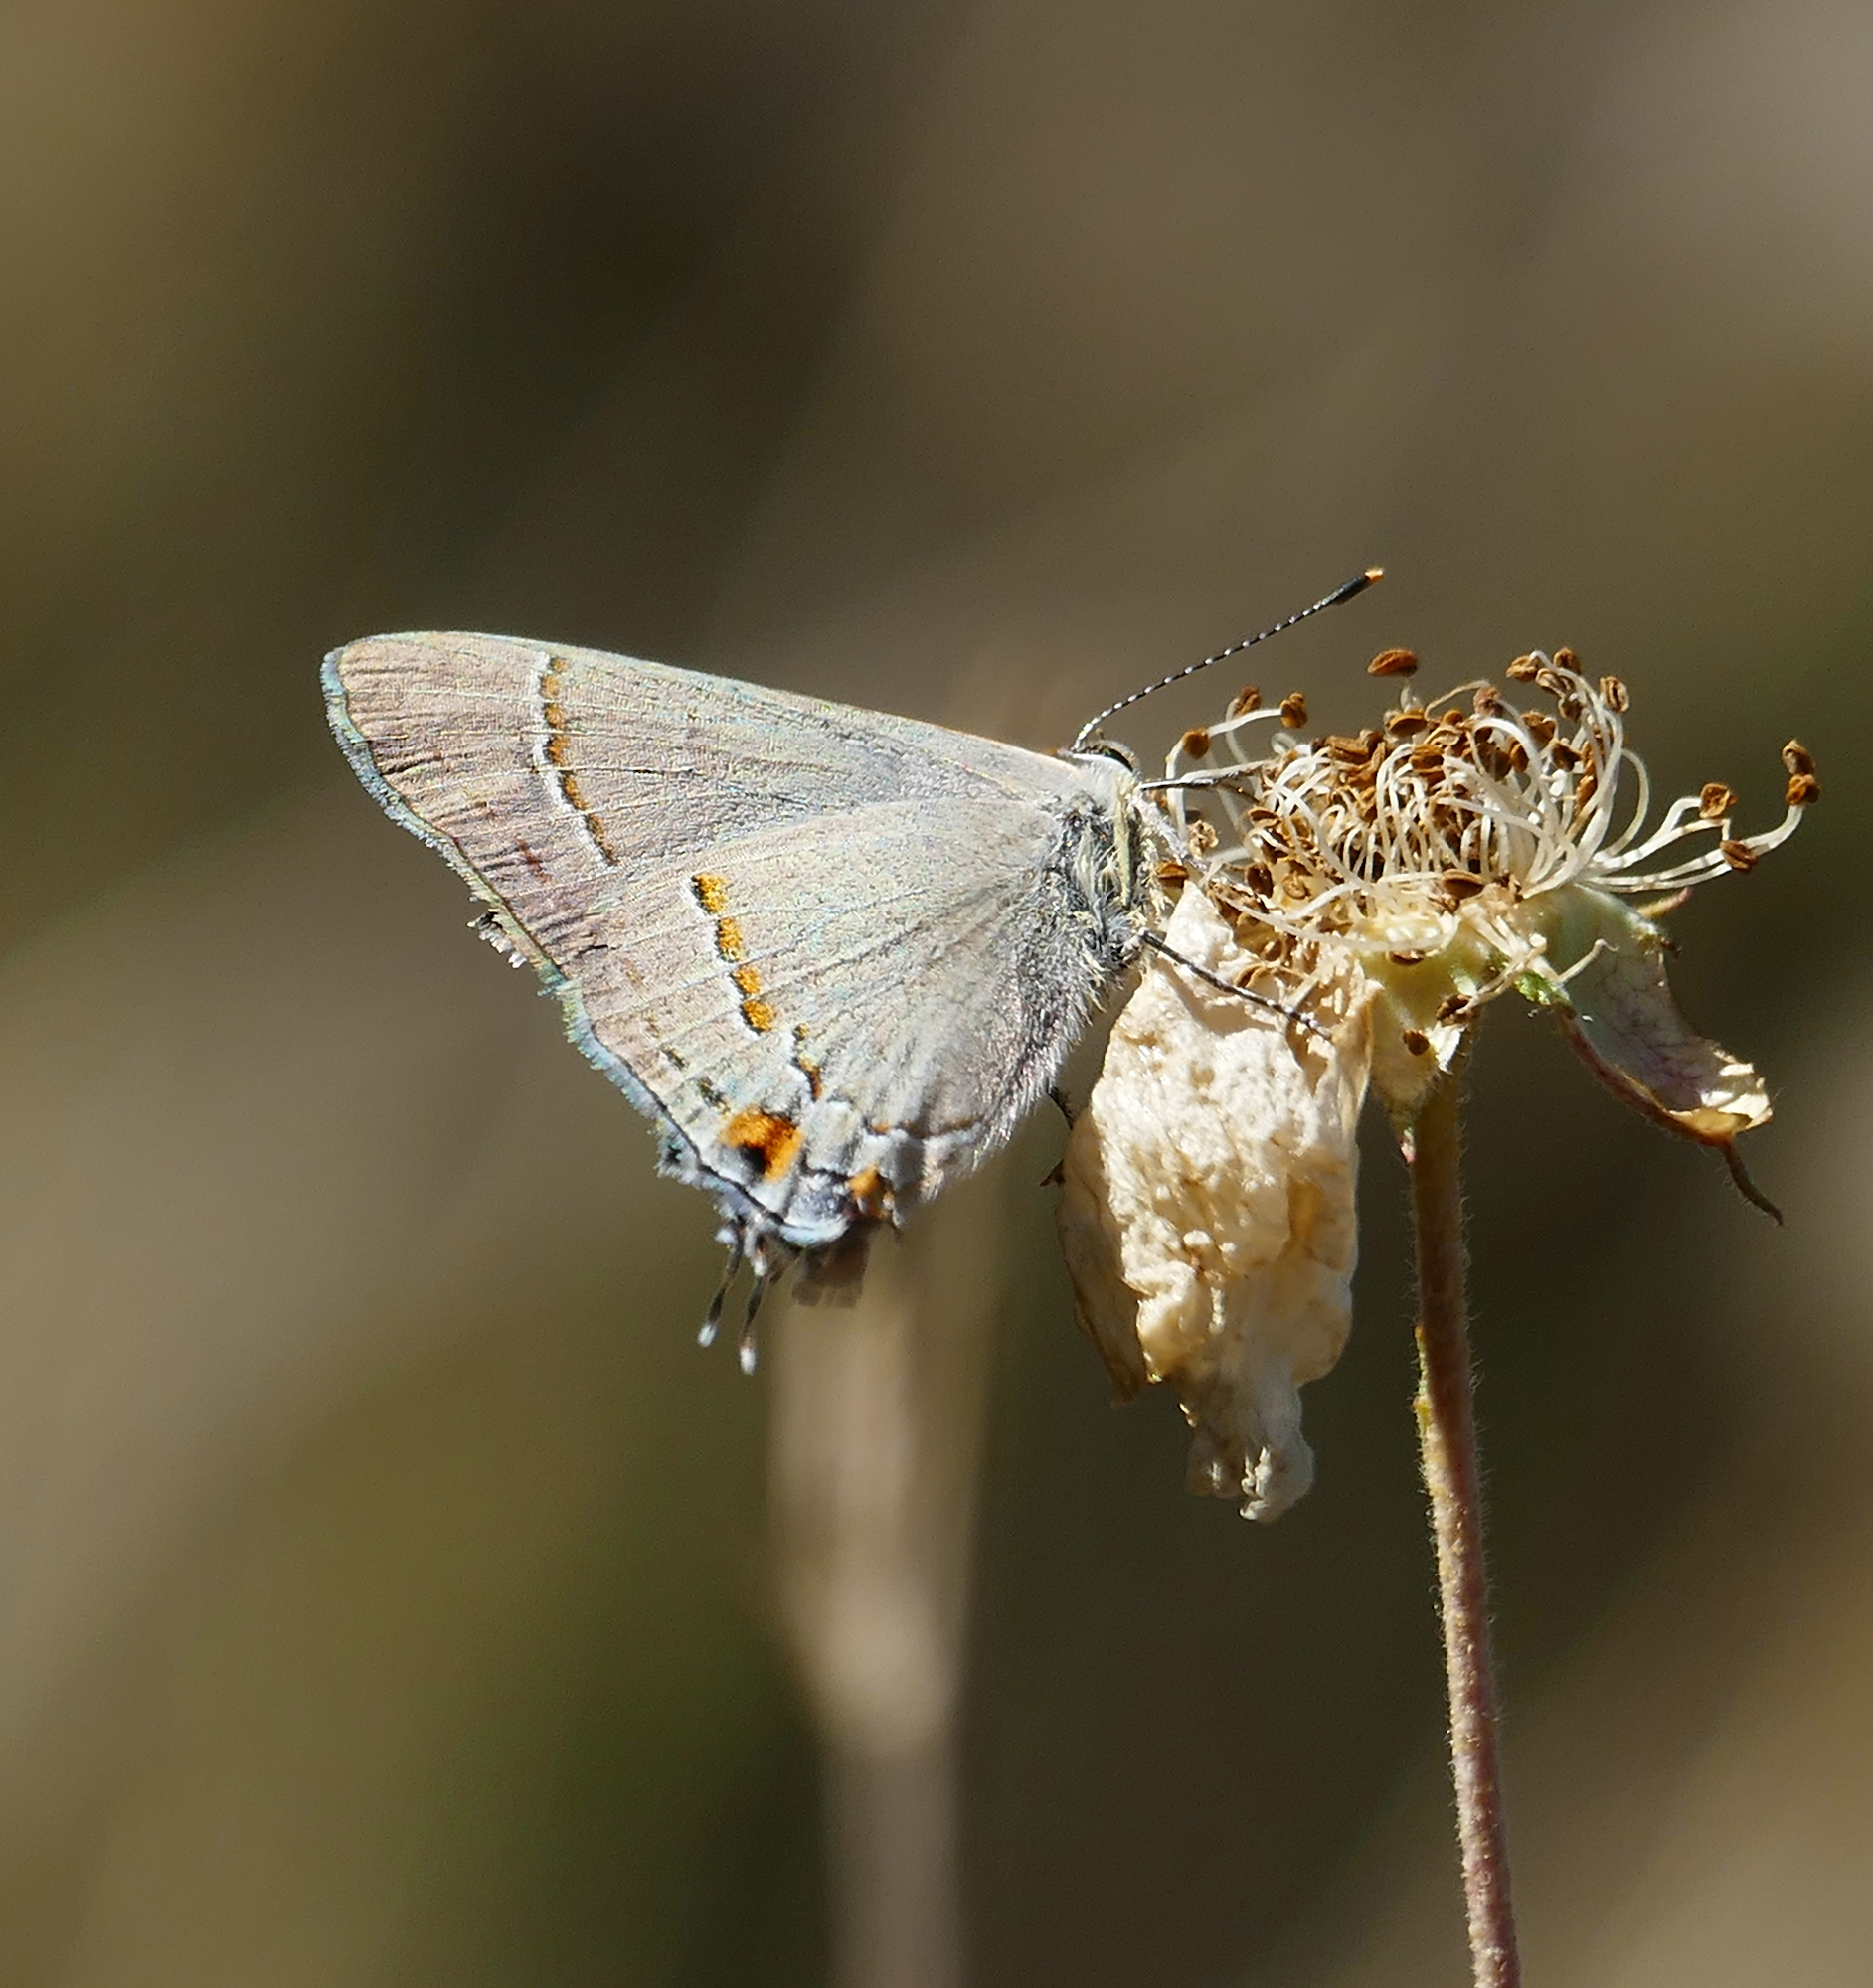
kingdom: Animalia
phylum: Arthropoda
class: Insecta
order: Lepidoptera
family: Lycaenidae
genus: Strymon
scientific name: Strymon melinus
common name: Gray hairstreak
